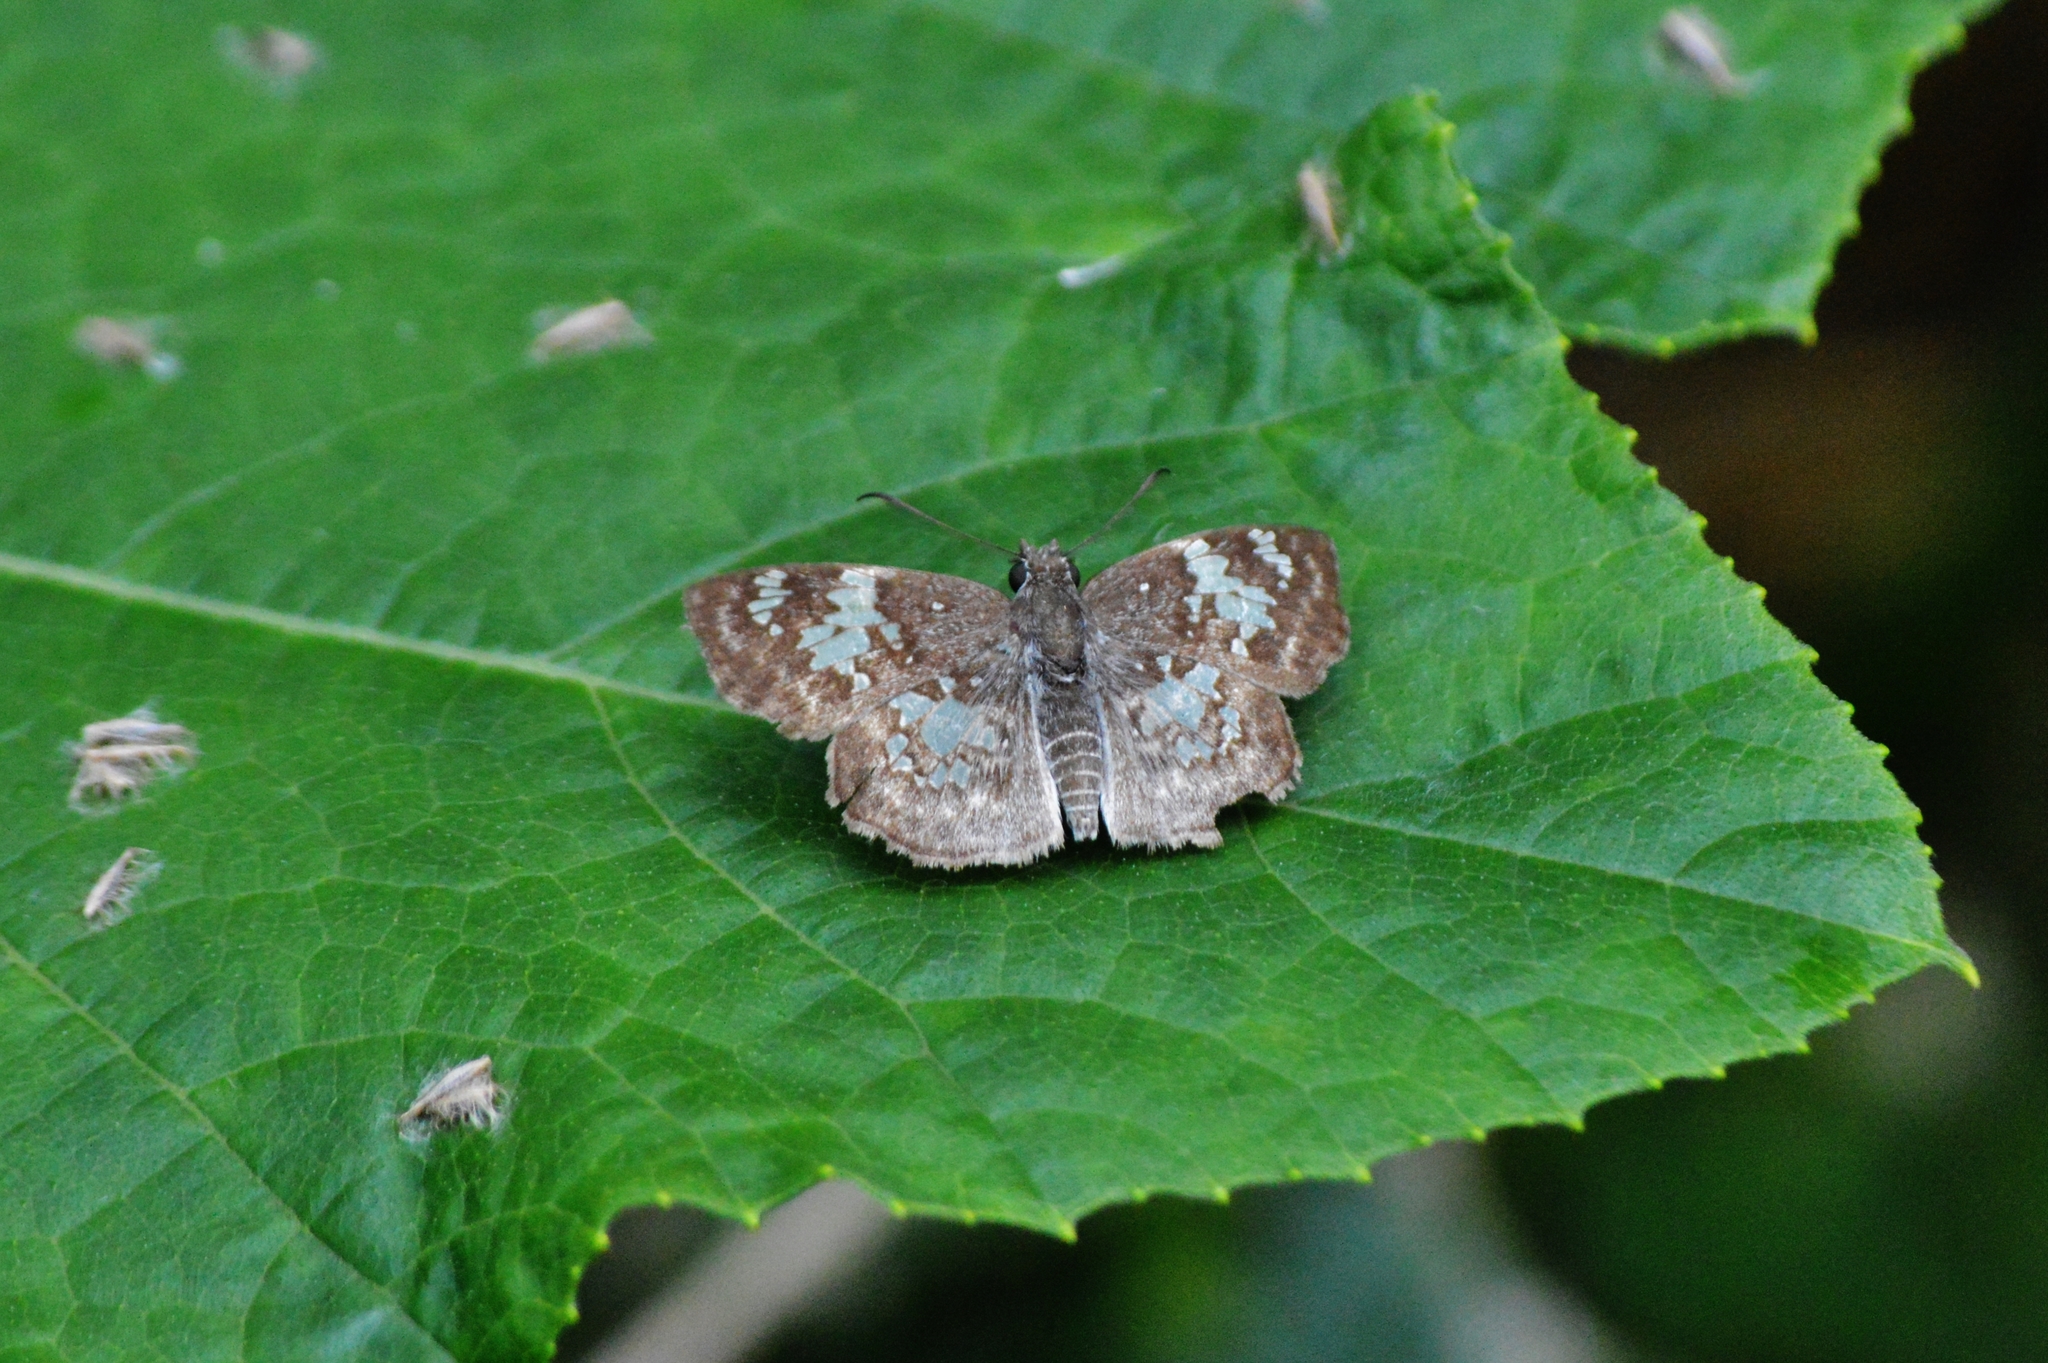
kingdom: Animalia
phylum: Arthropoda
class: Insecta
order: Lepidoptera
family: Hesperiidae
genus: Xenophanes
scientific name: Xenophanes tryxus
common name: Glassy-winged skipper
